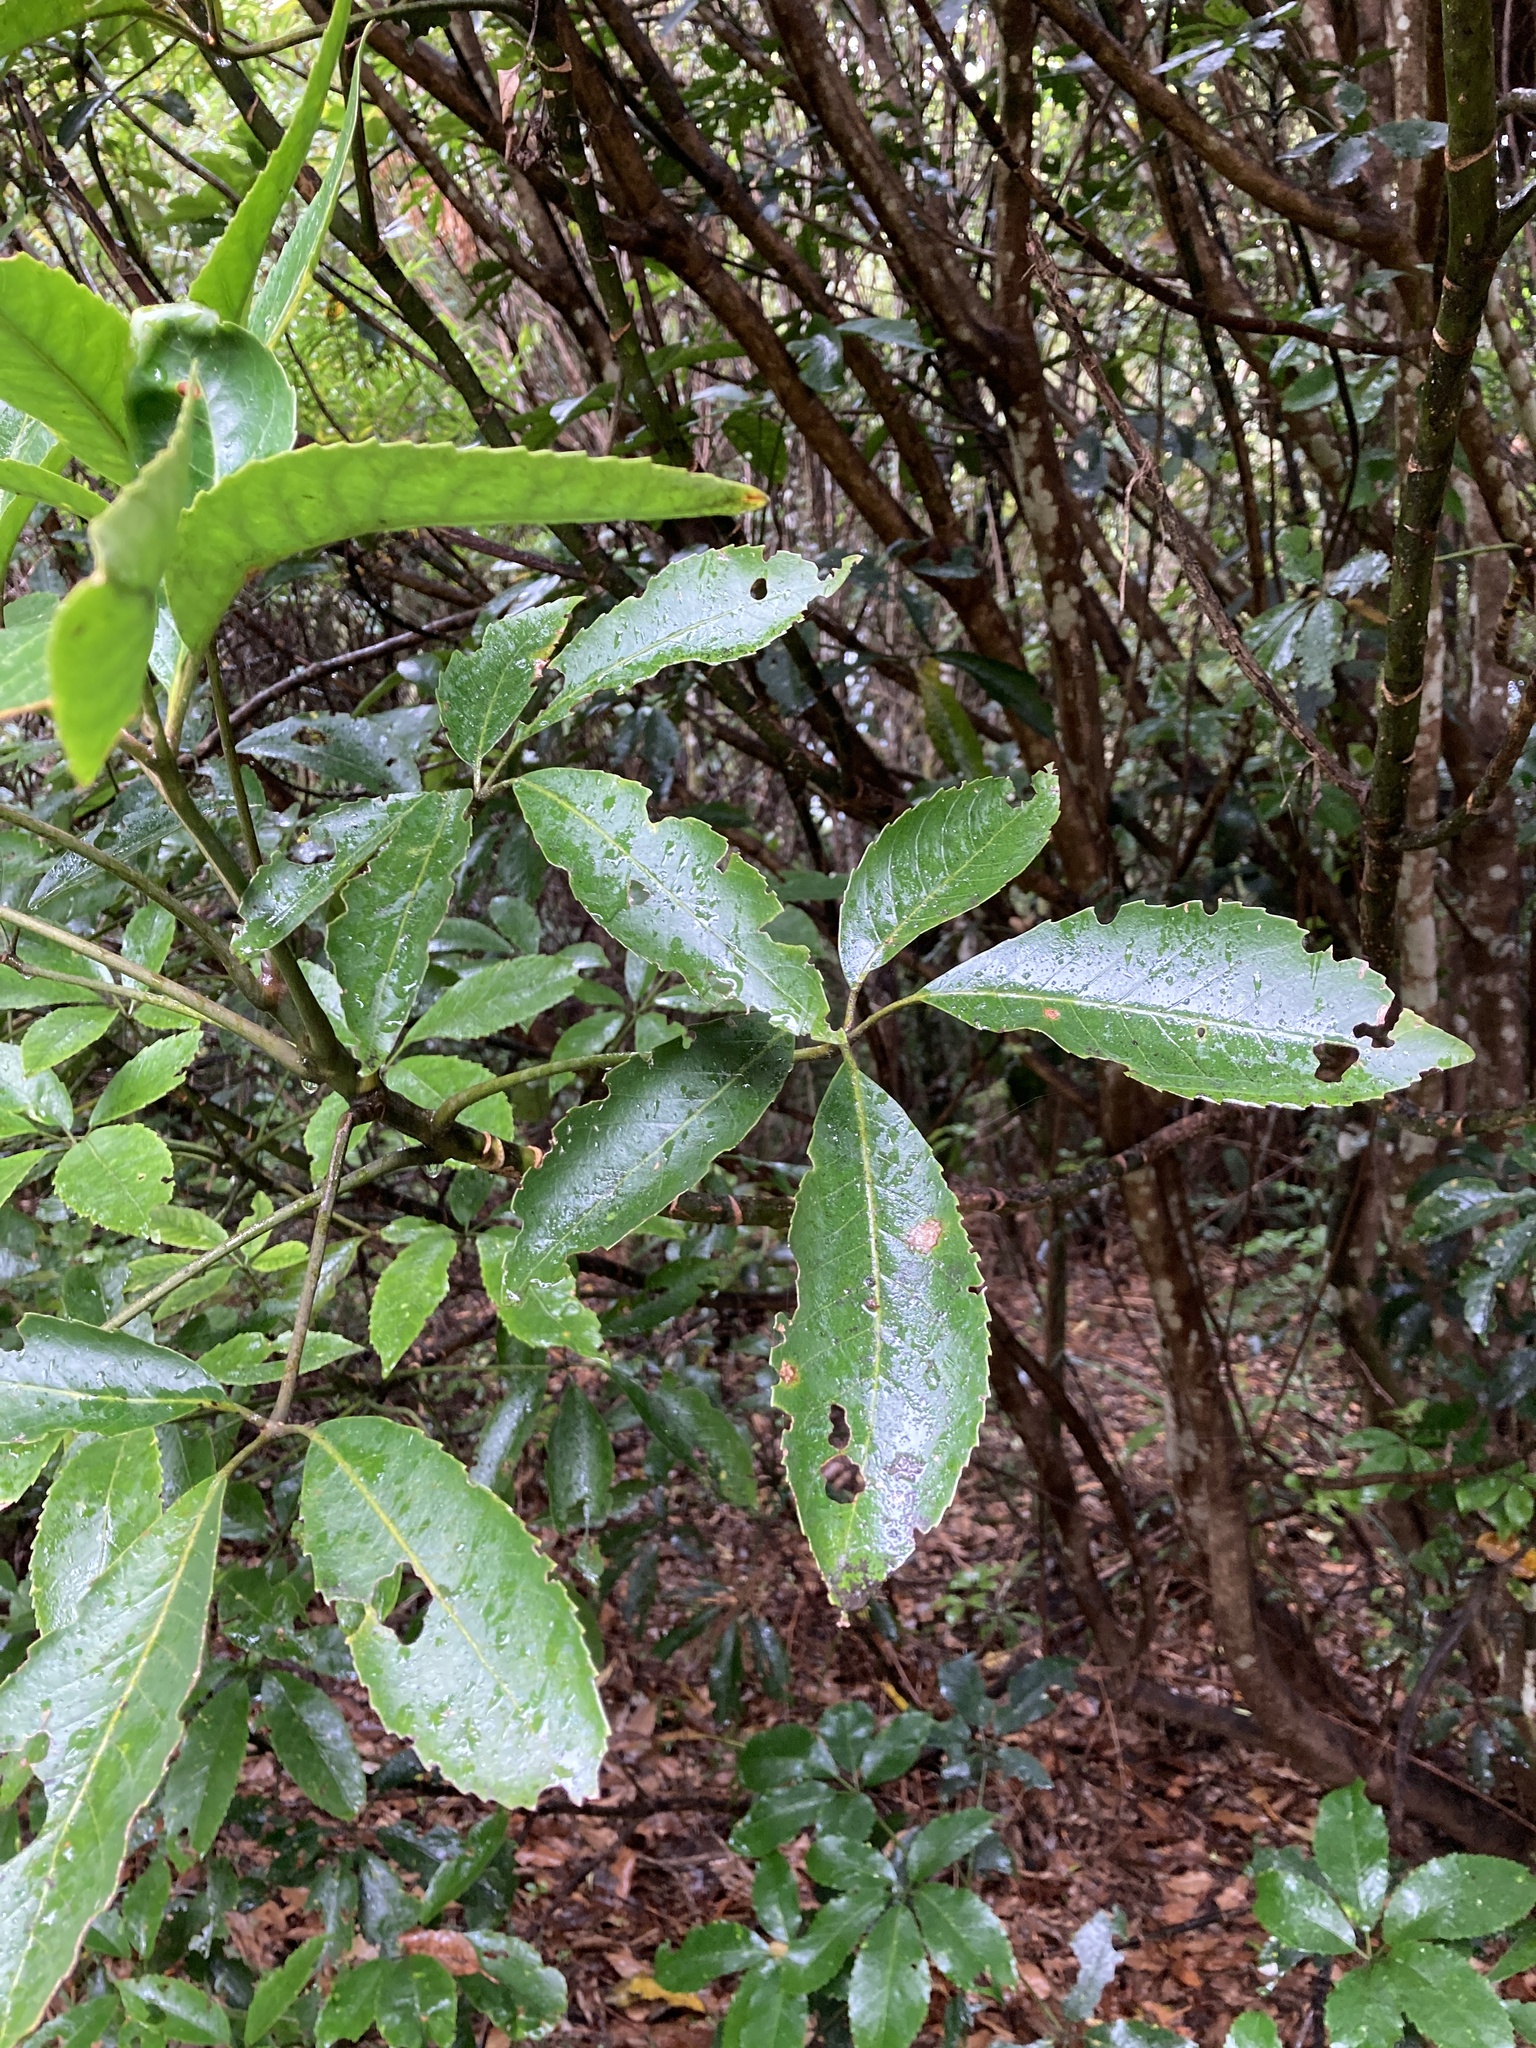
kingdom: Plantae
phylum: Tracheophyta
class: Magnoliopsida
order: Apiales
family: Araliaceae
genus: Neopanax
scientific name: Neopanax arboreus
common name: Five-fingers
